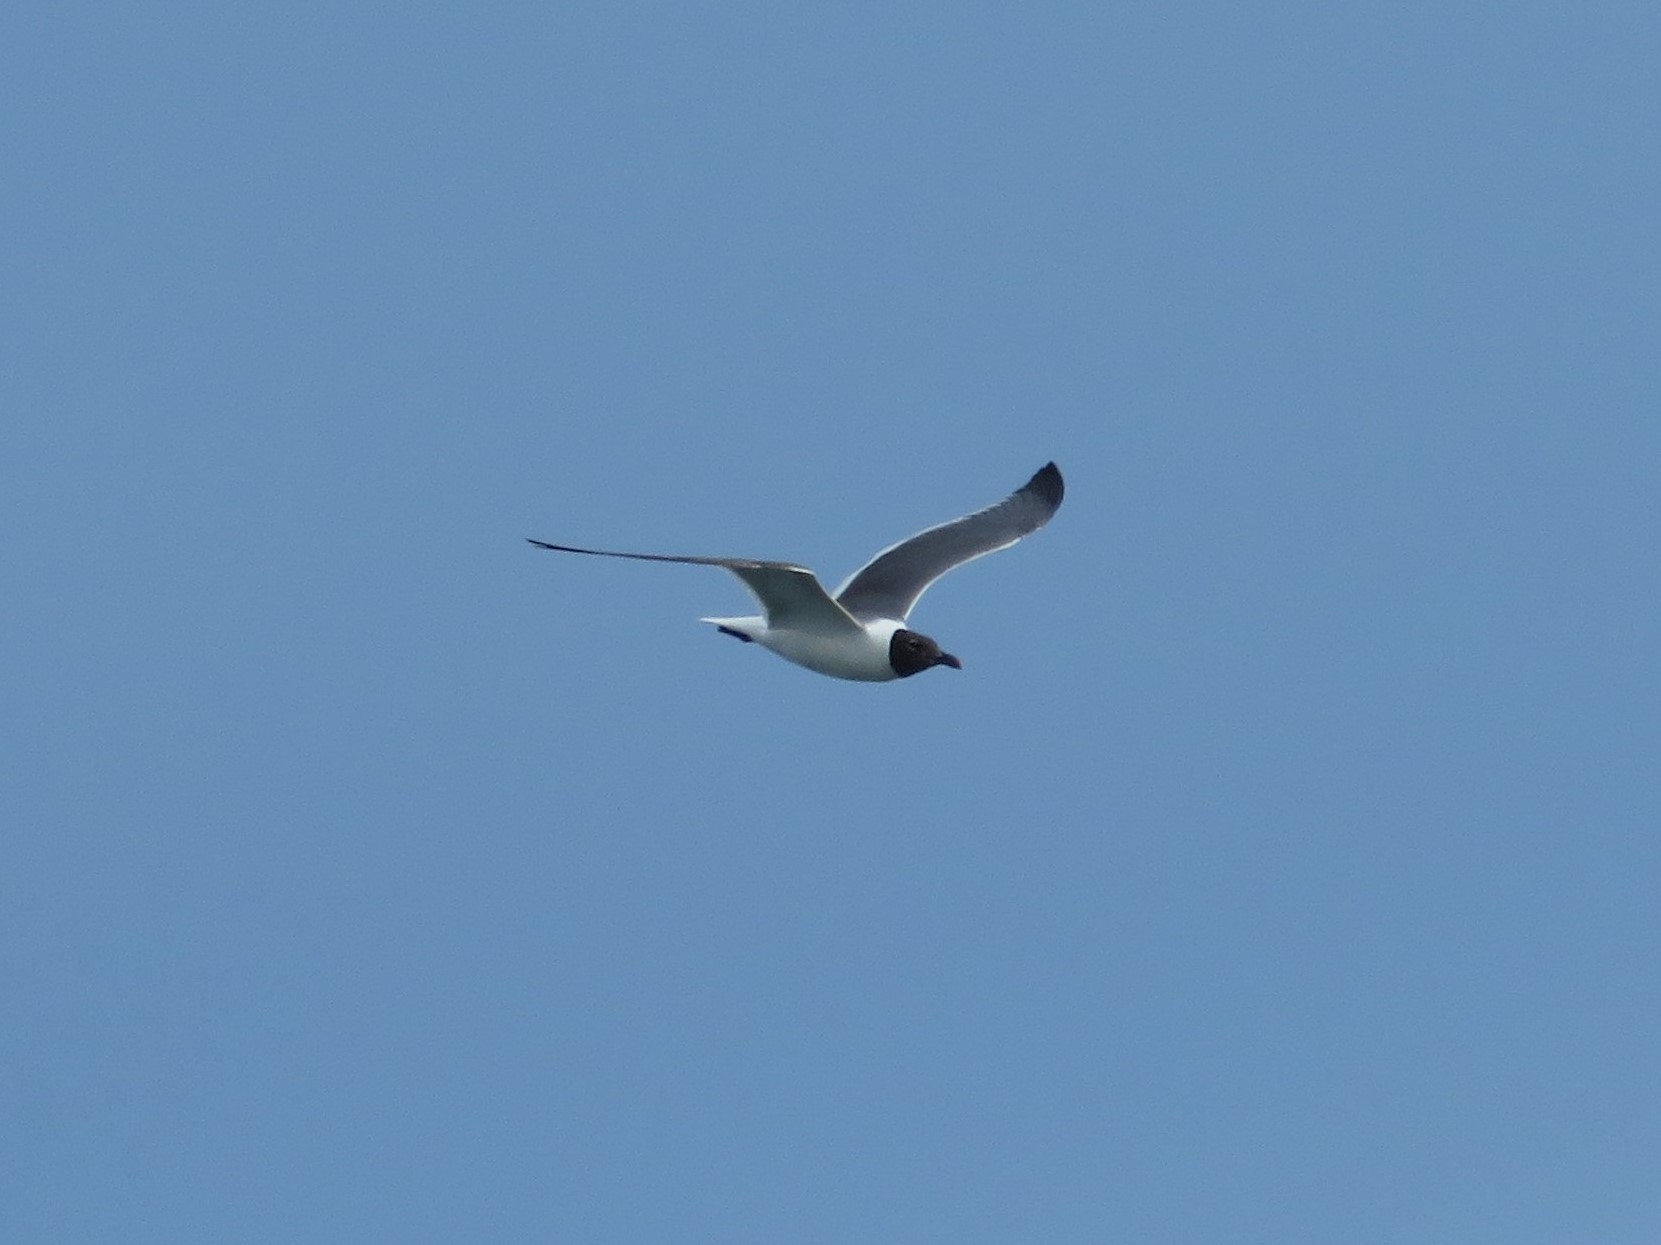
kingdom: Animalia
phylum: Chordata
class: Aves
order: Charadriiformes
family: Laridae
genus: Leucophaeus
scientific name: Leucophaeus atricilla
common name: Laughing gull
